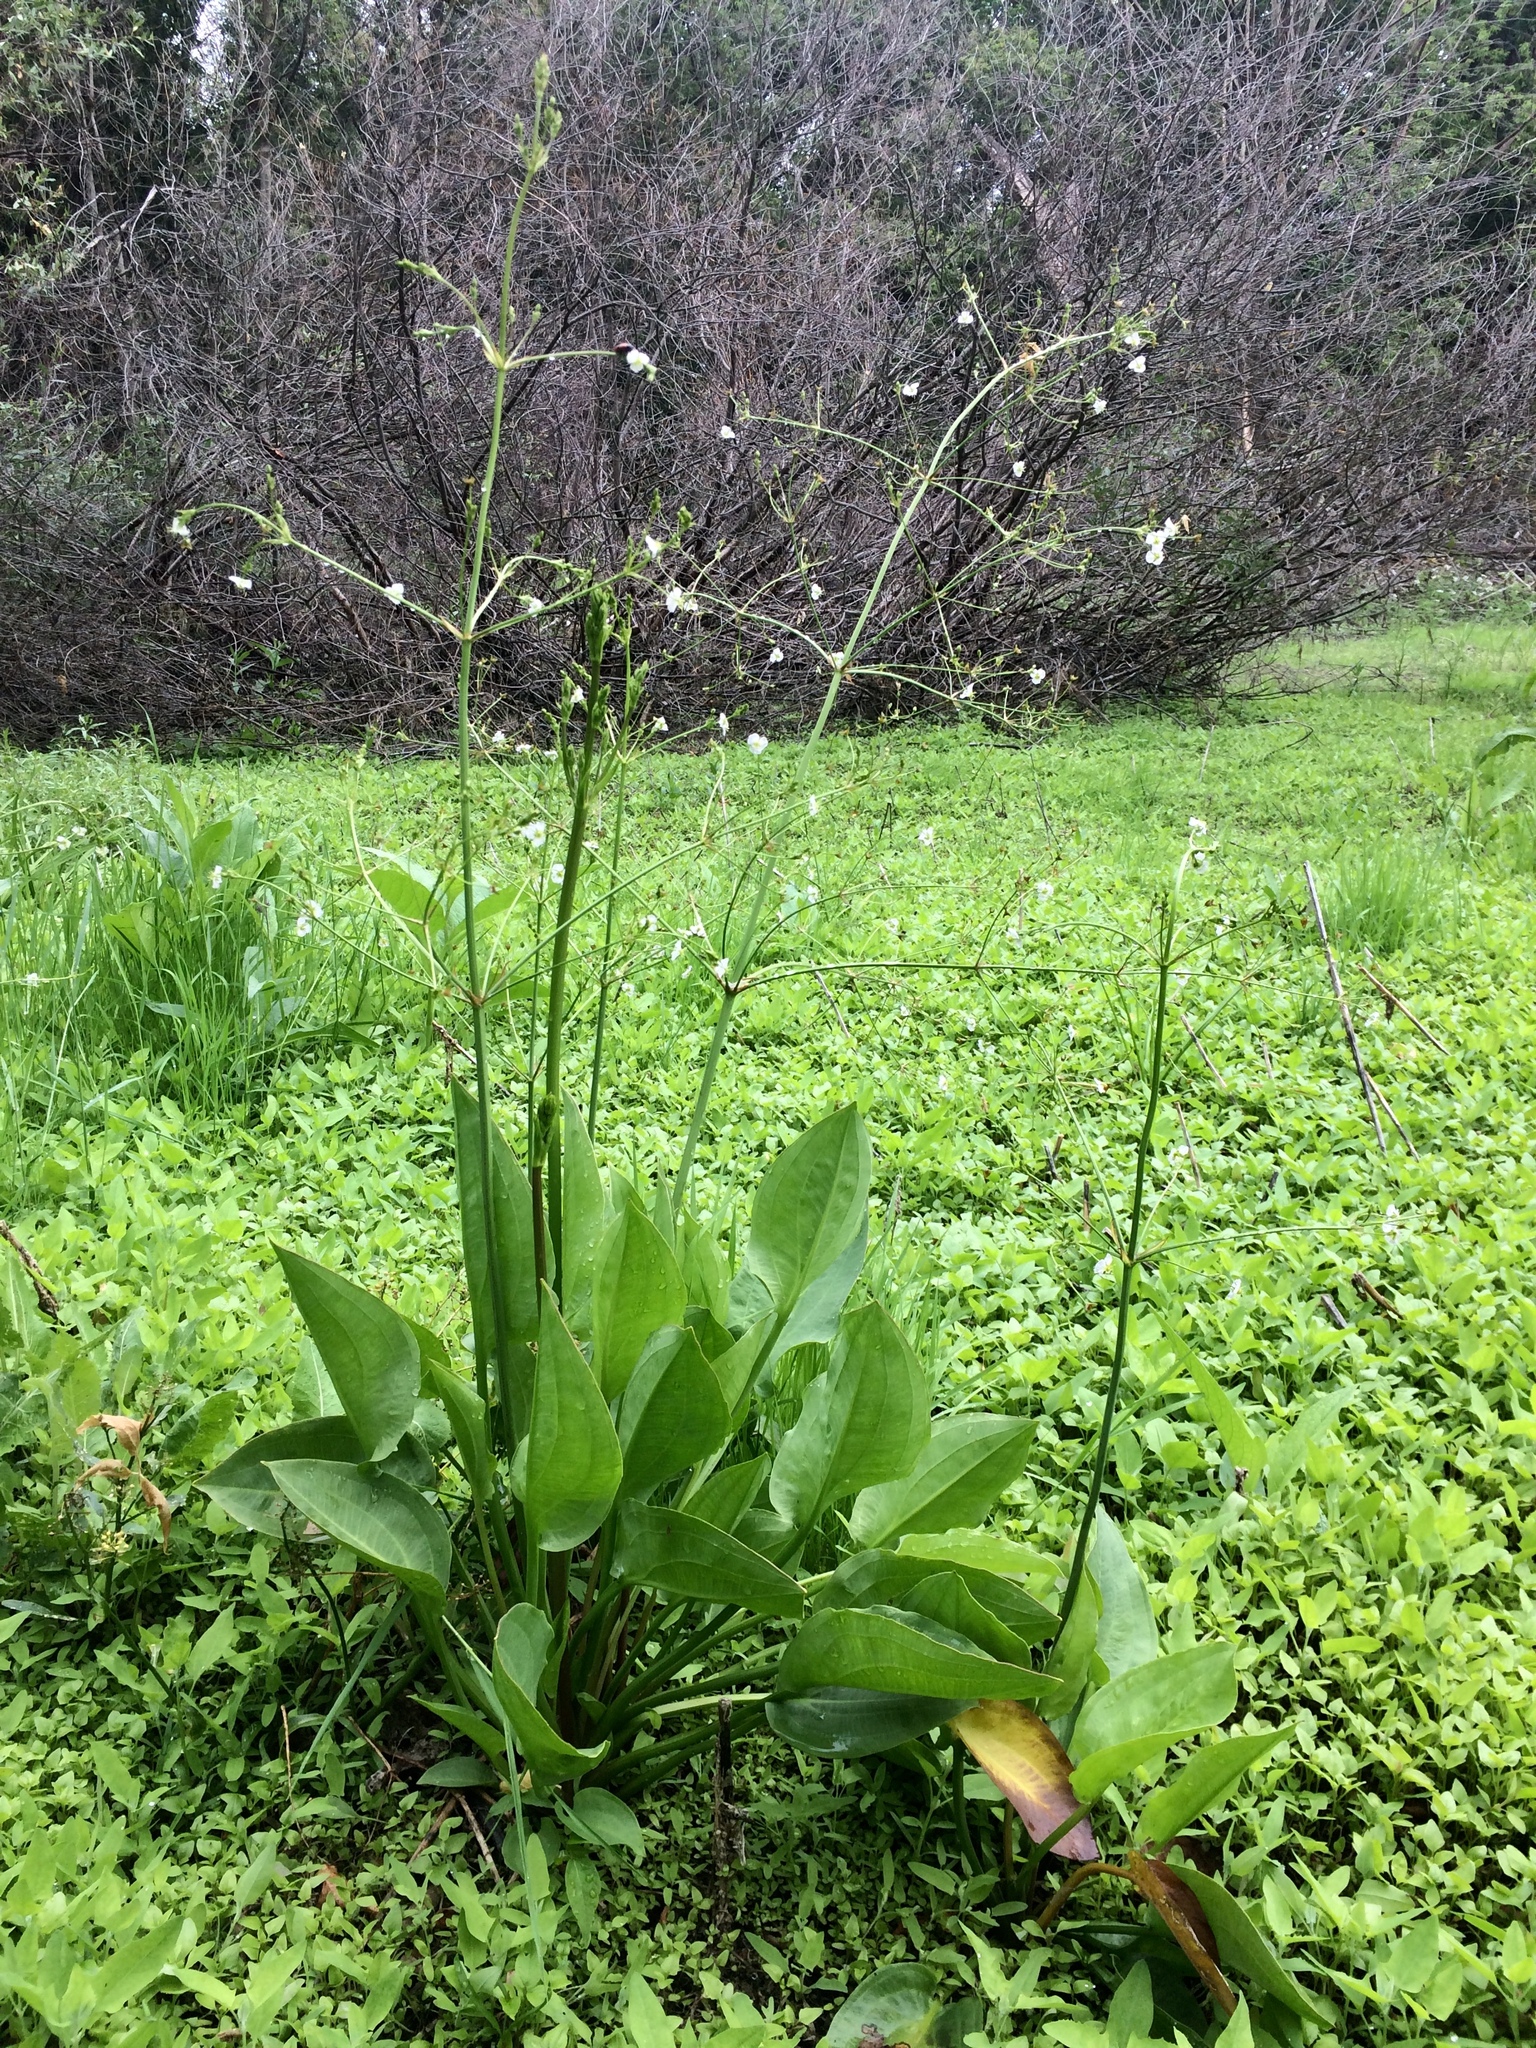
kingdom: Plantae
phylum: Tracheophyta
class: Liliopsida
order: Alismatales
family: Alismataceae
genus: Alisma
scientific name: Alisma plantago-aquatica
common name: Water-plantain
